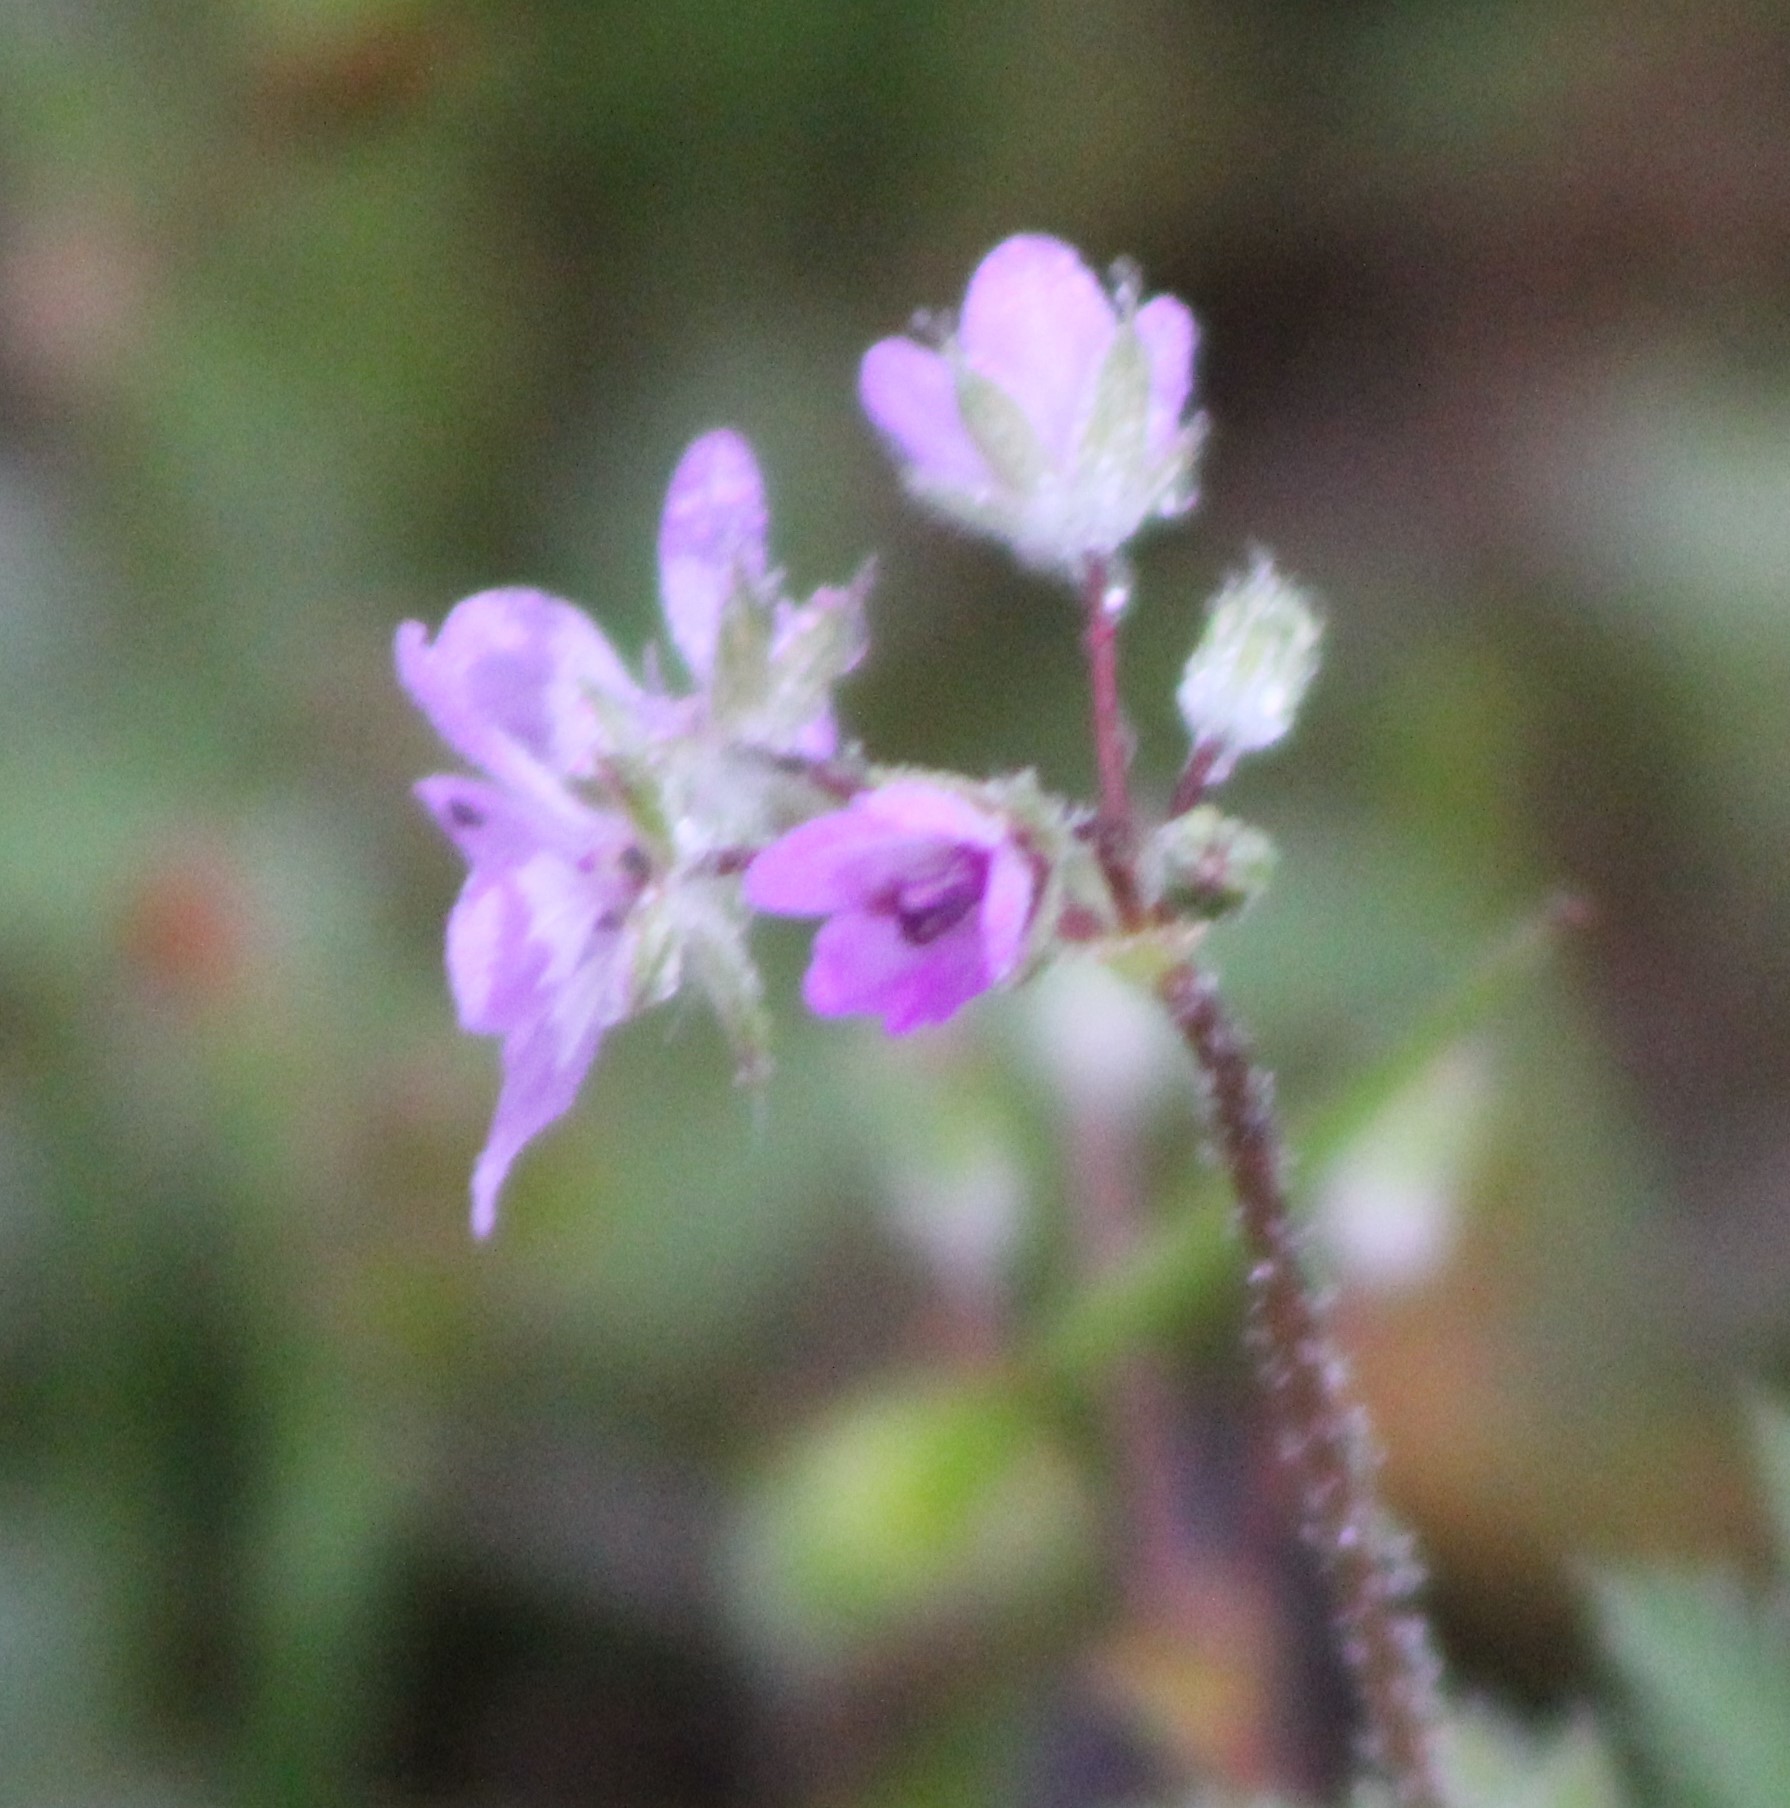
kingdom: Plantae
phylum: Tracheophyta
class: Magnoliopsida
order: Geraniales
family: Geraniaceae
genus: Erodium
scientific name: Erodium cicutarium
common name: Common stork's-bill
